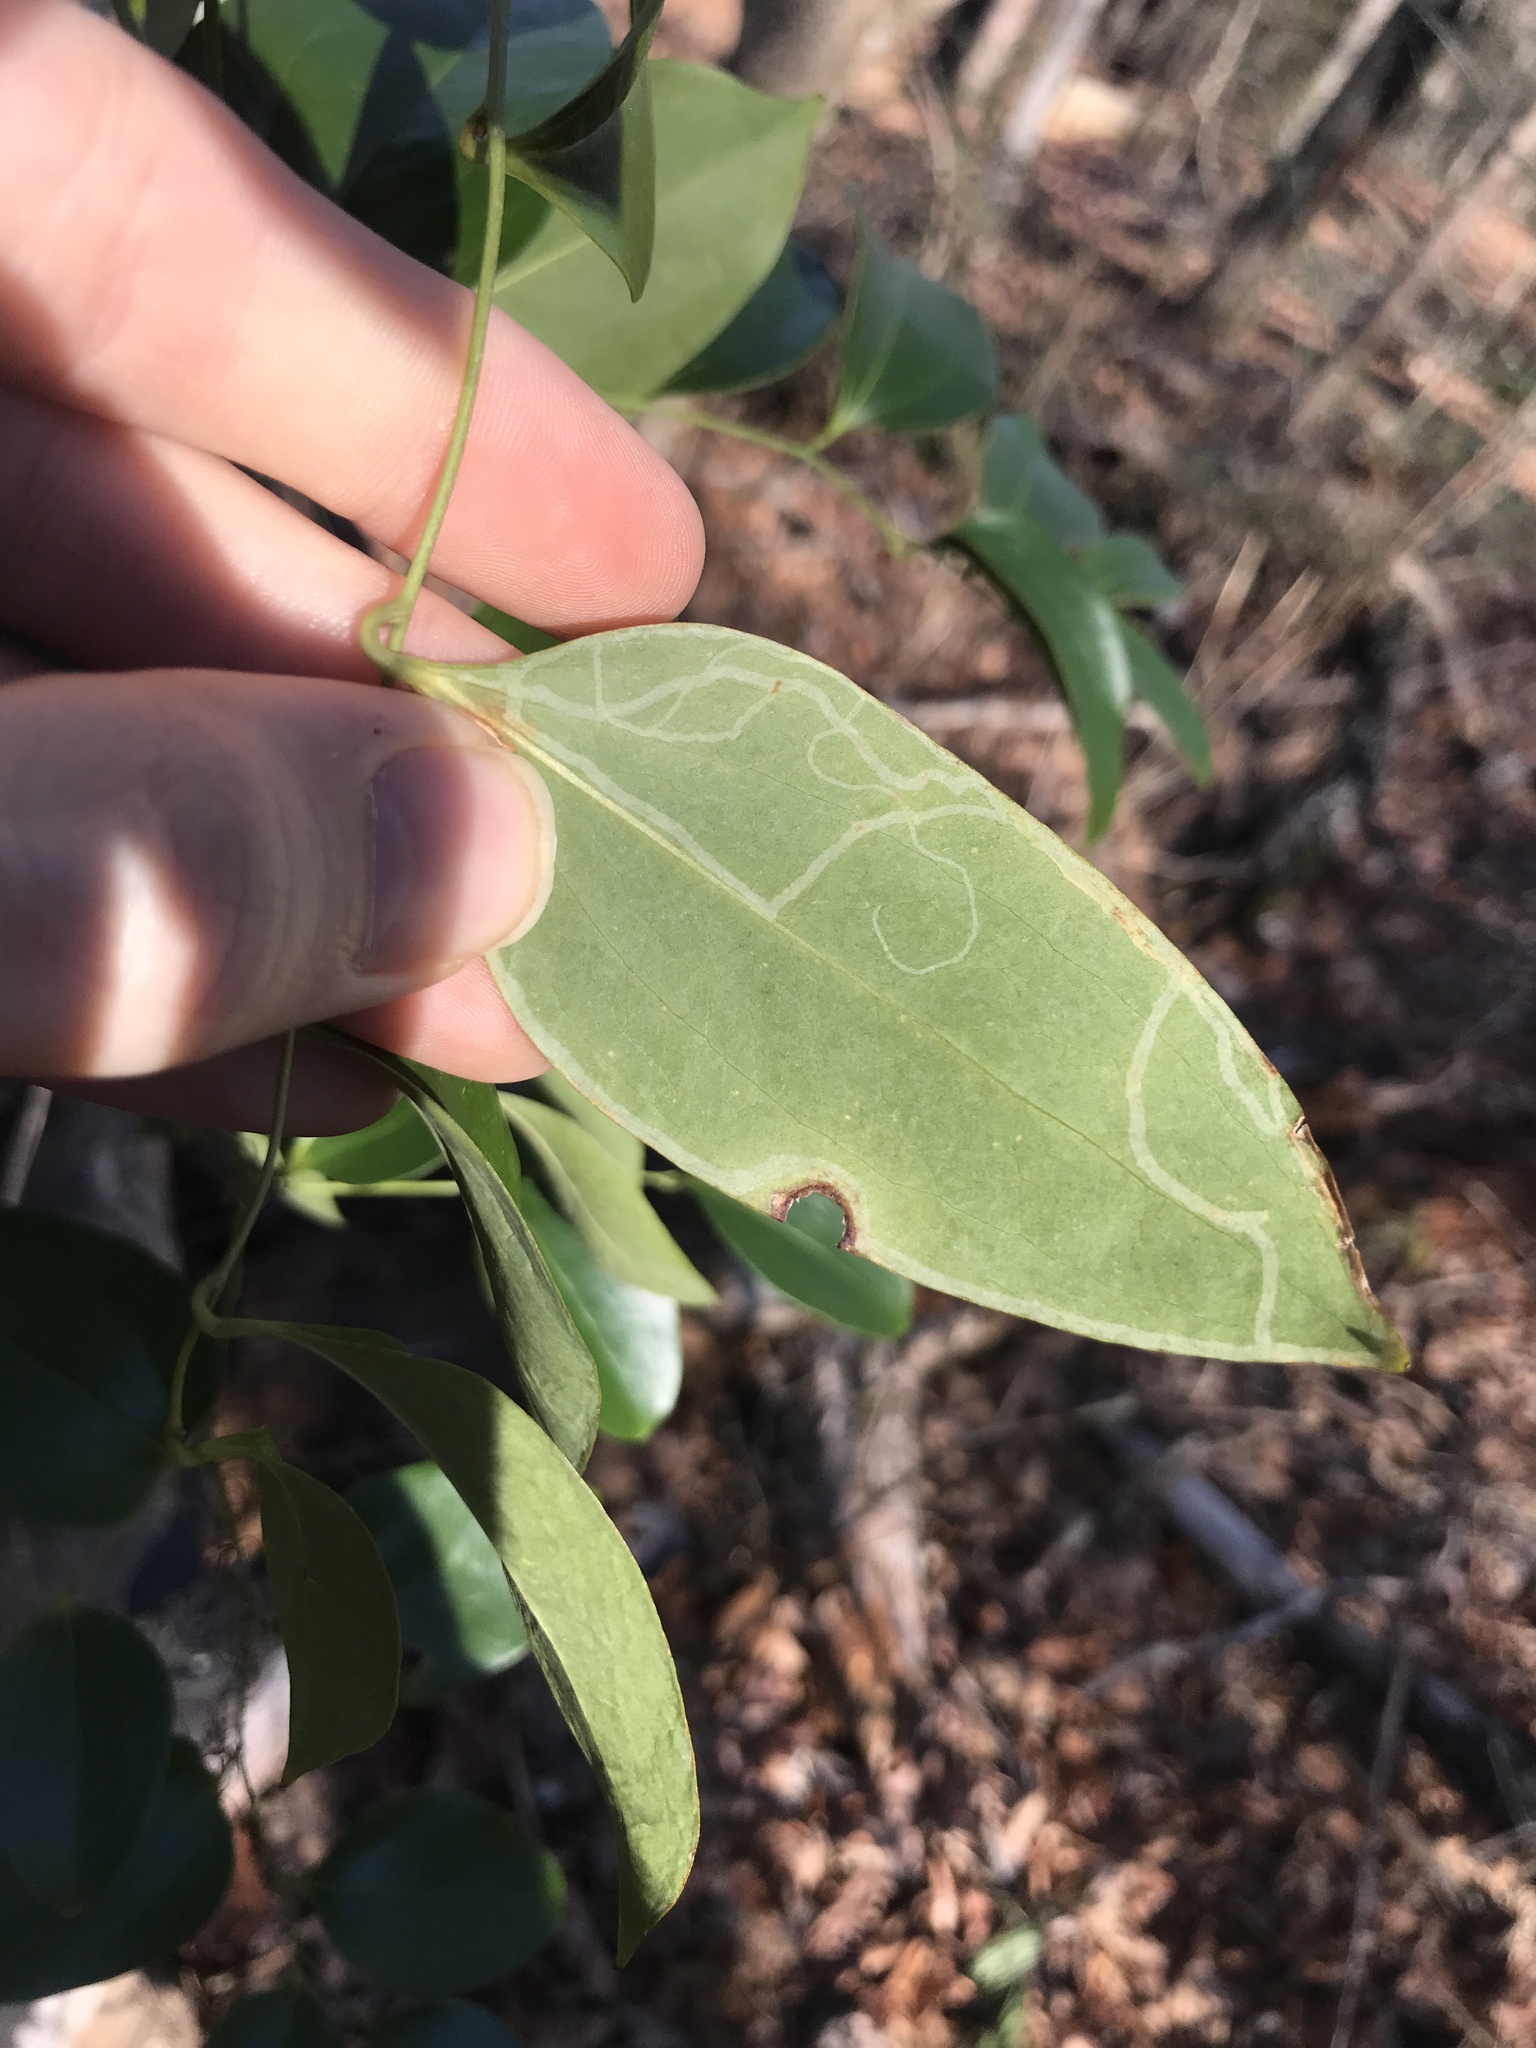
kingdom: Animalia
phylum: Arthropoda
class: Insecta
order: Lepidoptera
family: Gracillariidae
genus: Marmara
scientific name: Marmara smilacisella
